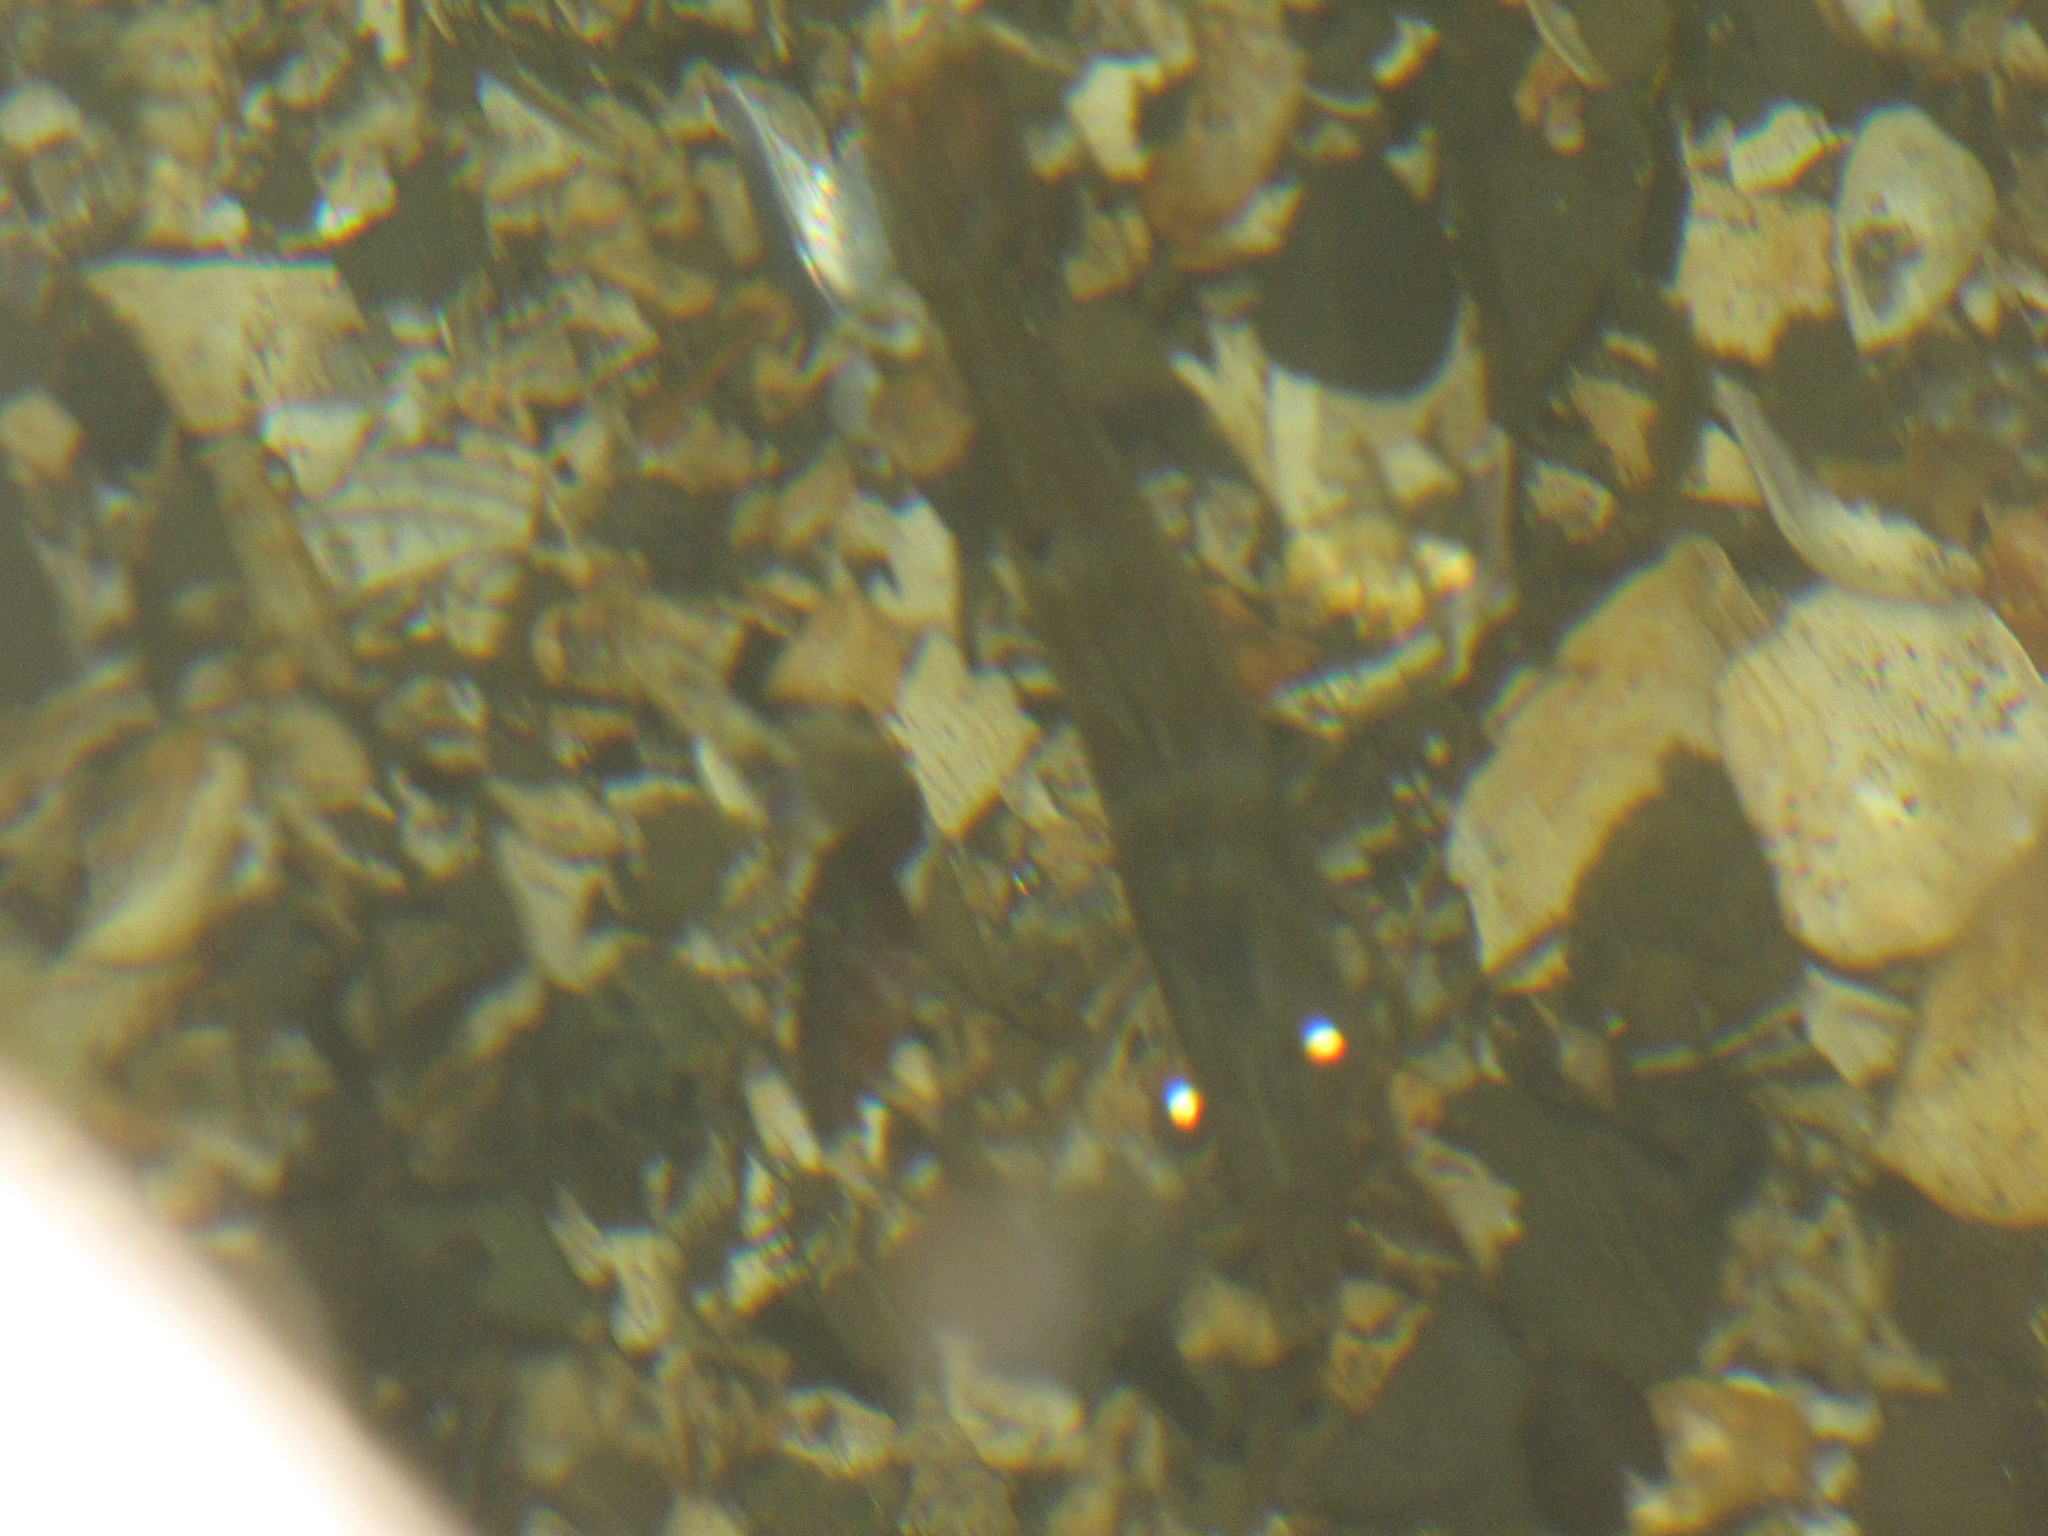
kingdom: Animalia
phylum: Arthropoda
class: Malacostraca
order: Decapoda
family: Pandalidae
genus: Pandalus
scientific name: Pandalus danae
